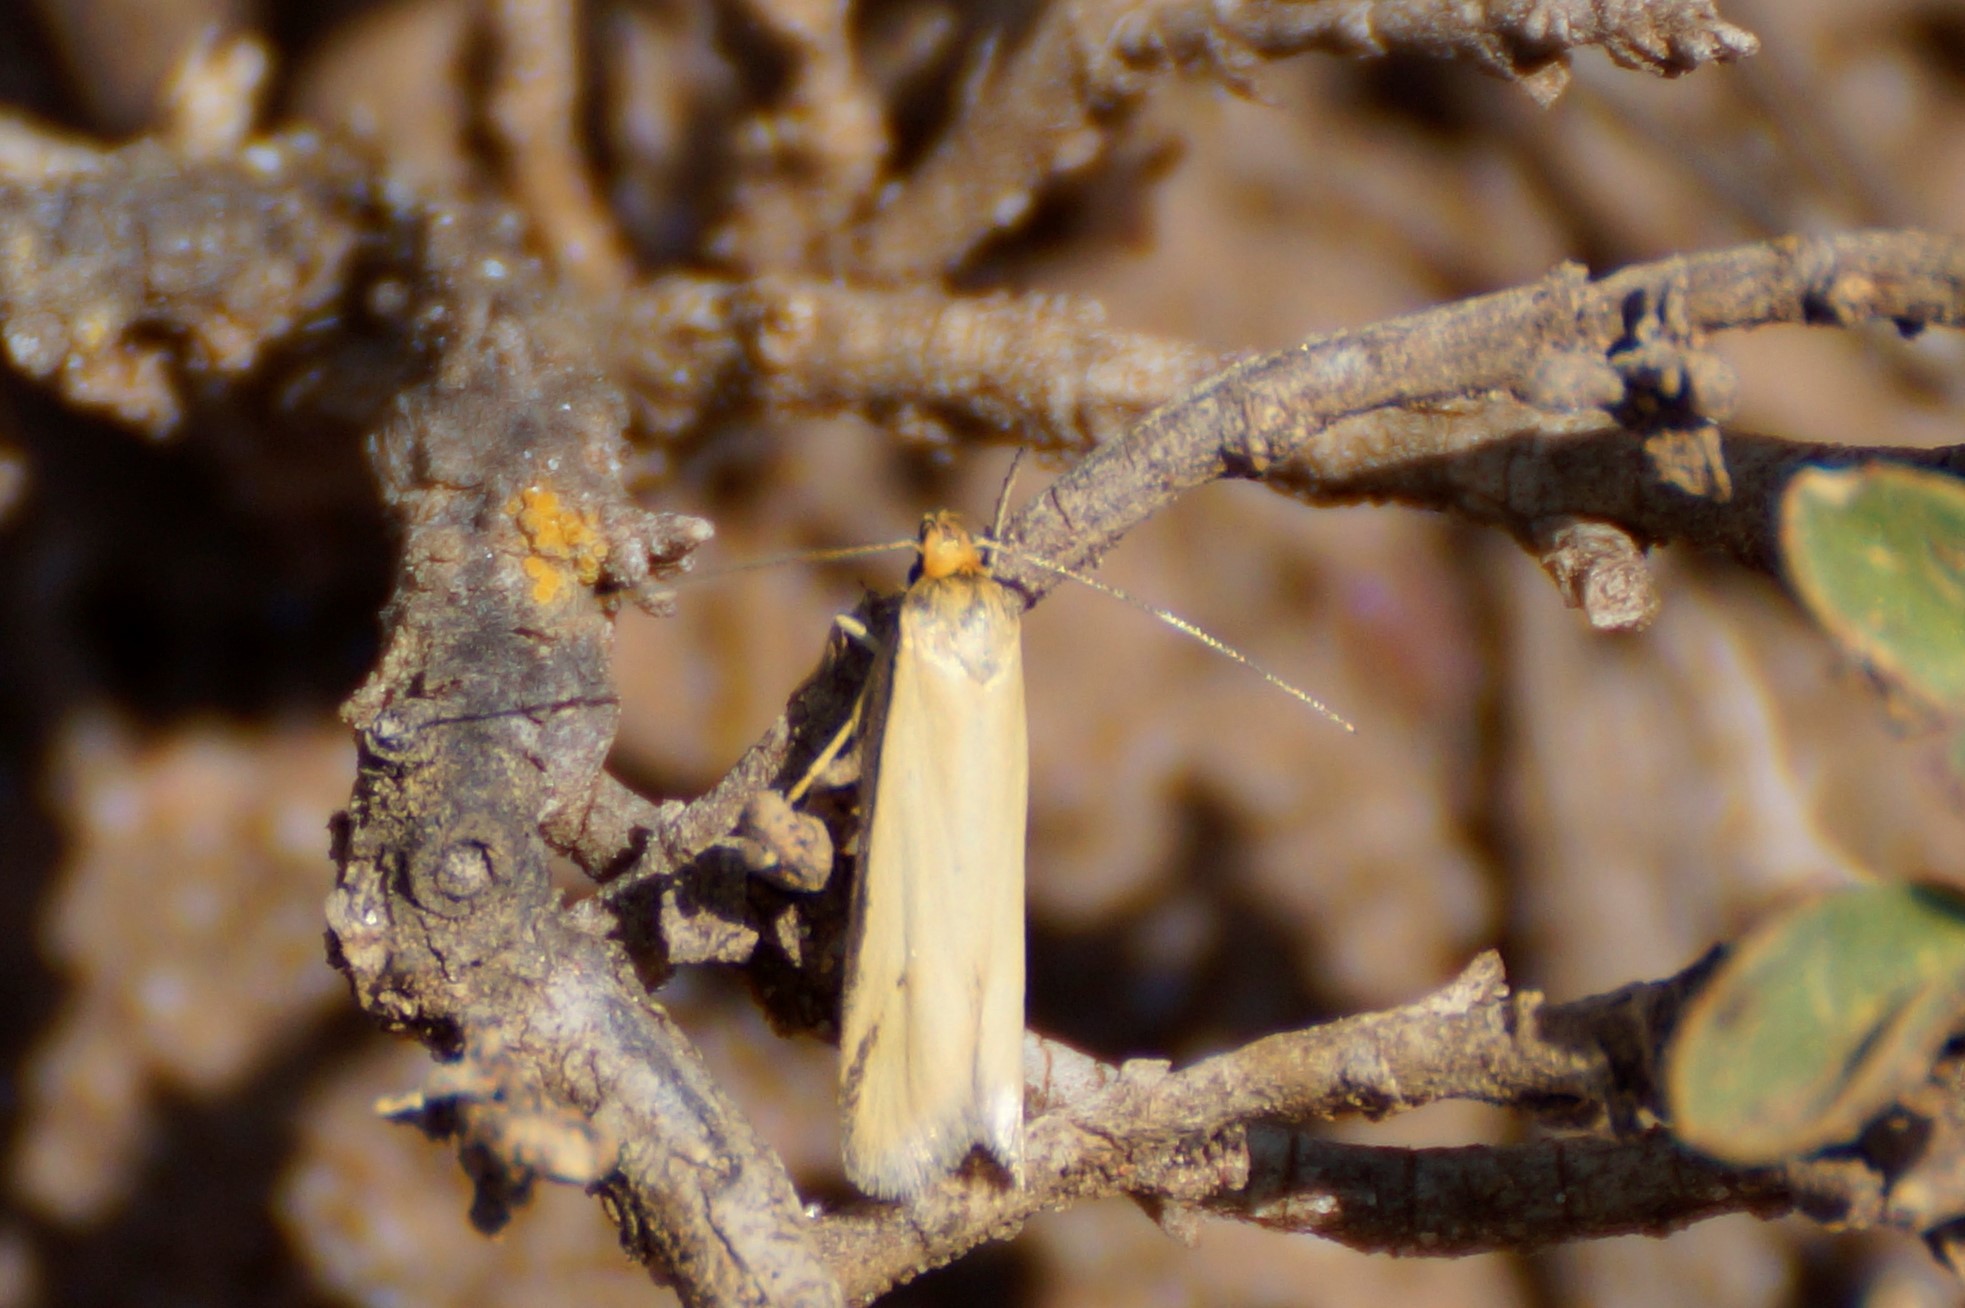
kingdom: Animalia
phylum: Arthropoda
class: Insecta
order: Lepidoptera
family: Oecophoridae
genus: Philobota
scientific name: Philobota latifissella
